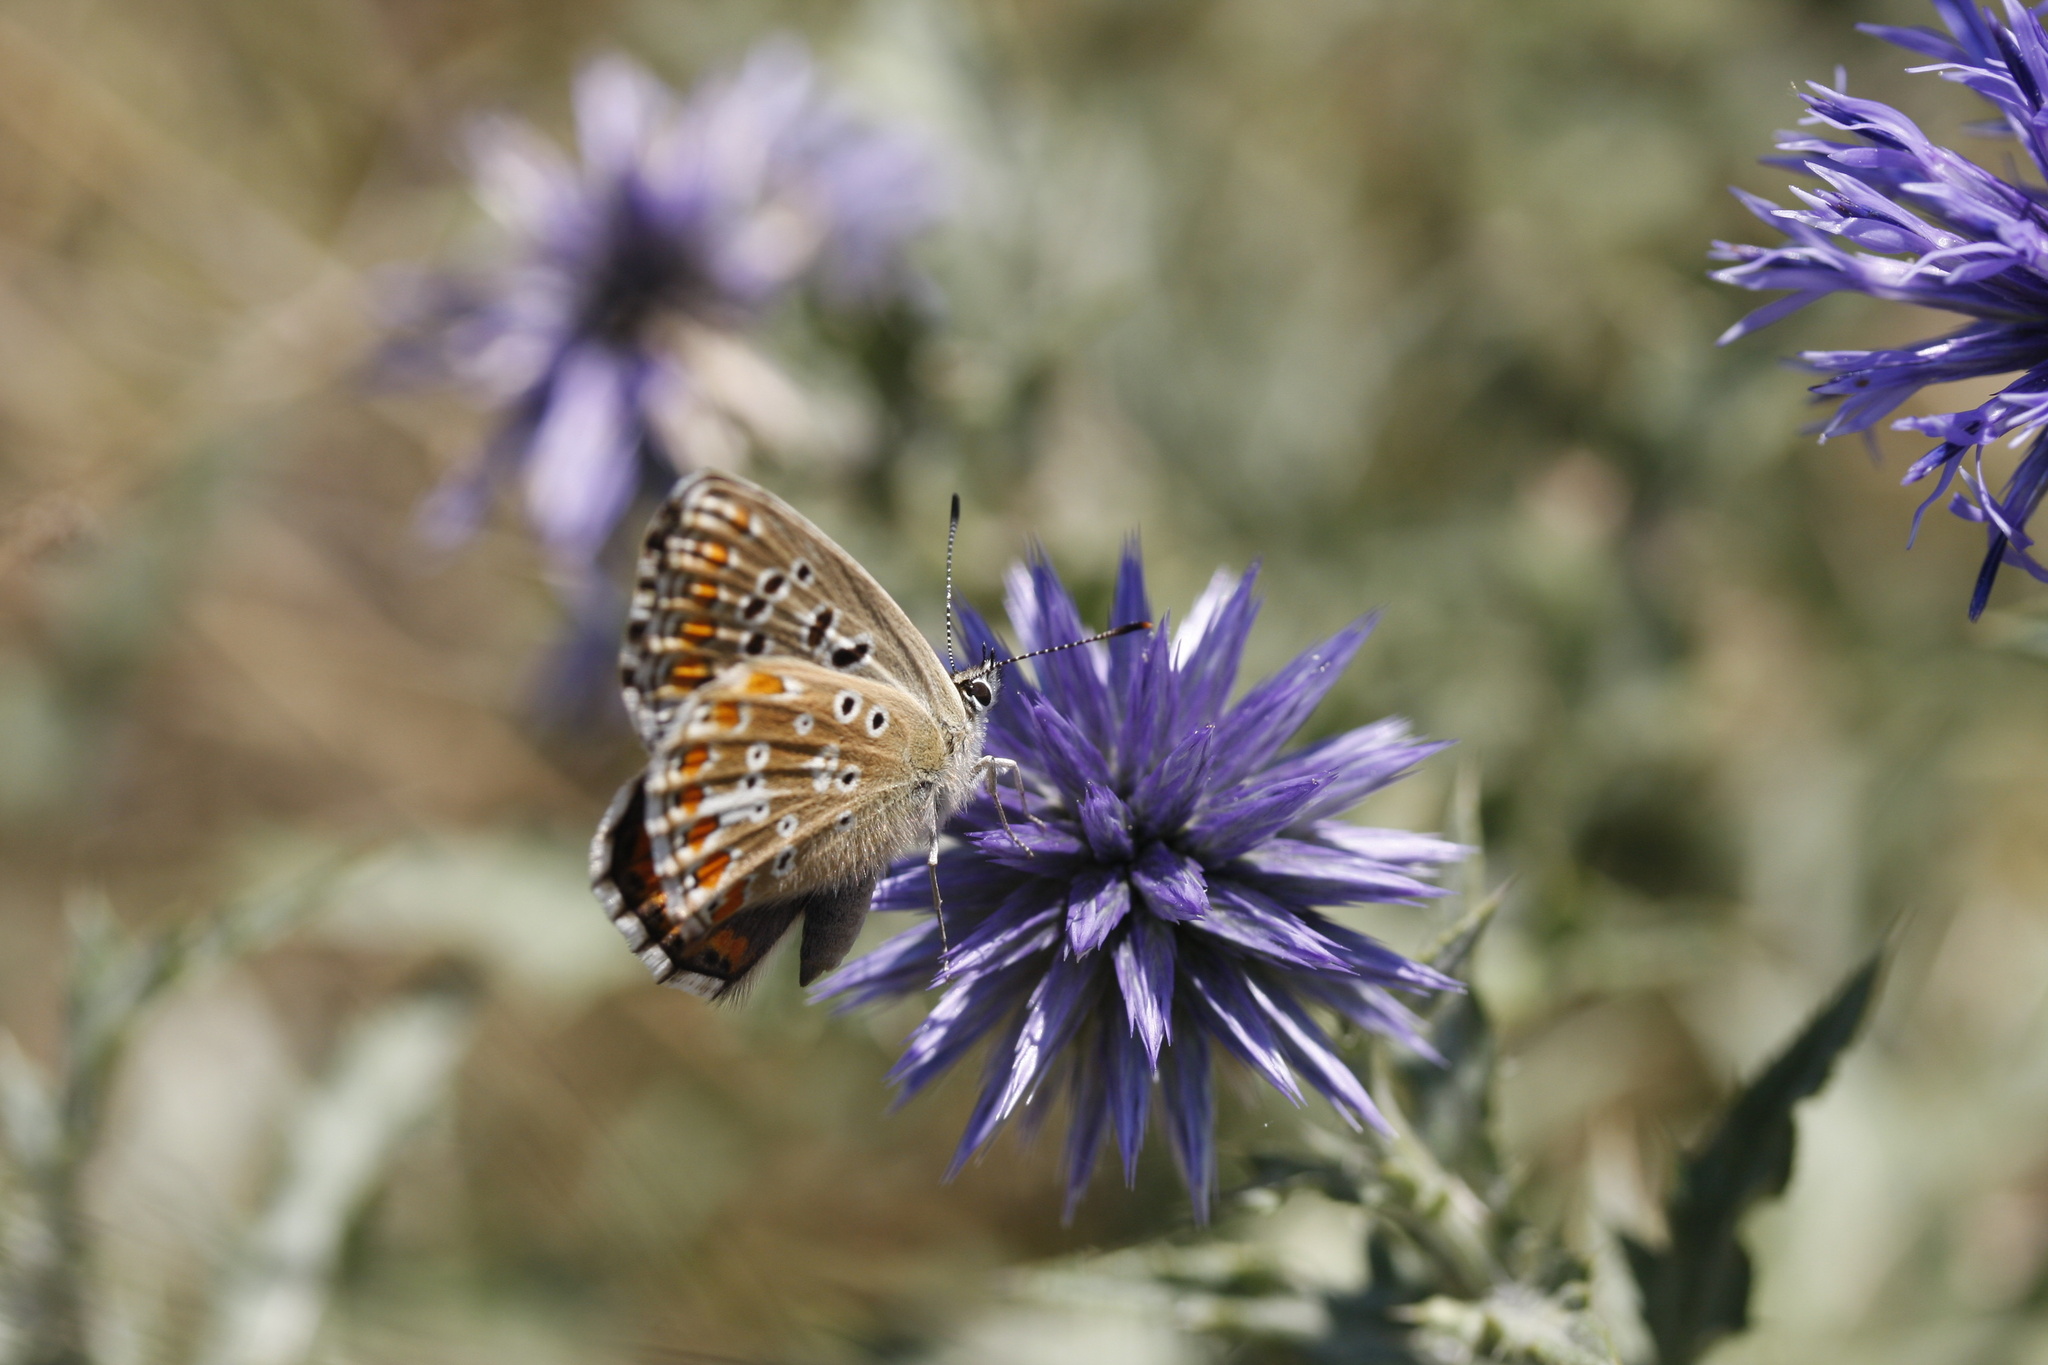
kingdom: Animalia
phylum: Arthropoda
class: Insecta
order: Lepidoptera
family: Lycaenidae
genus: Lysandra
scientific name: Lysandra bellargus
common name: Adonis blue
